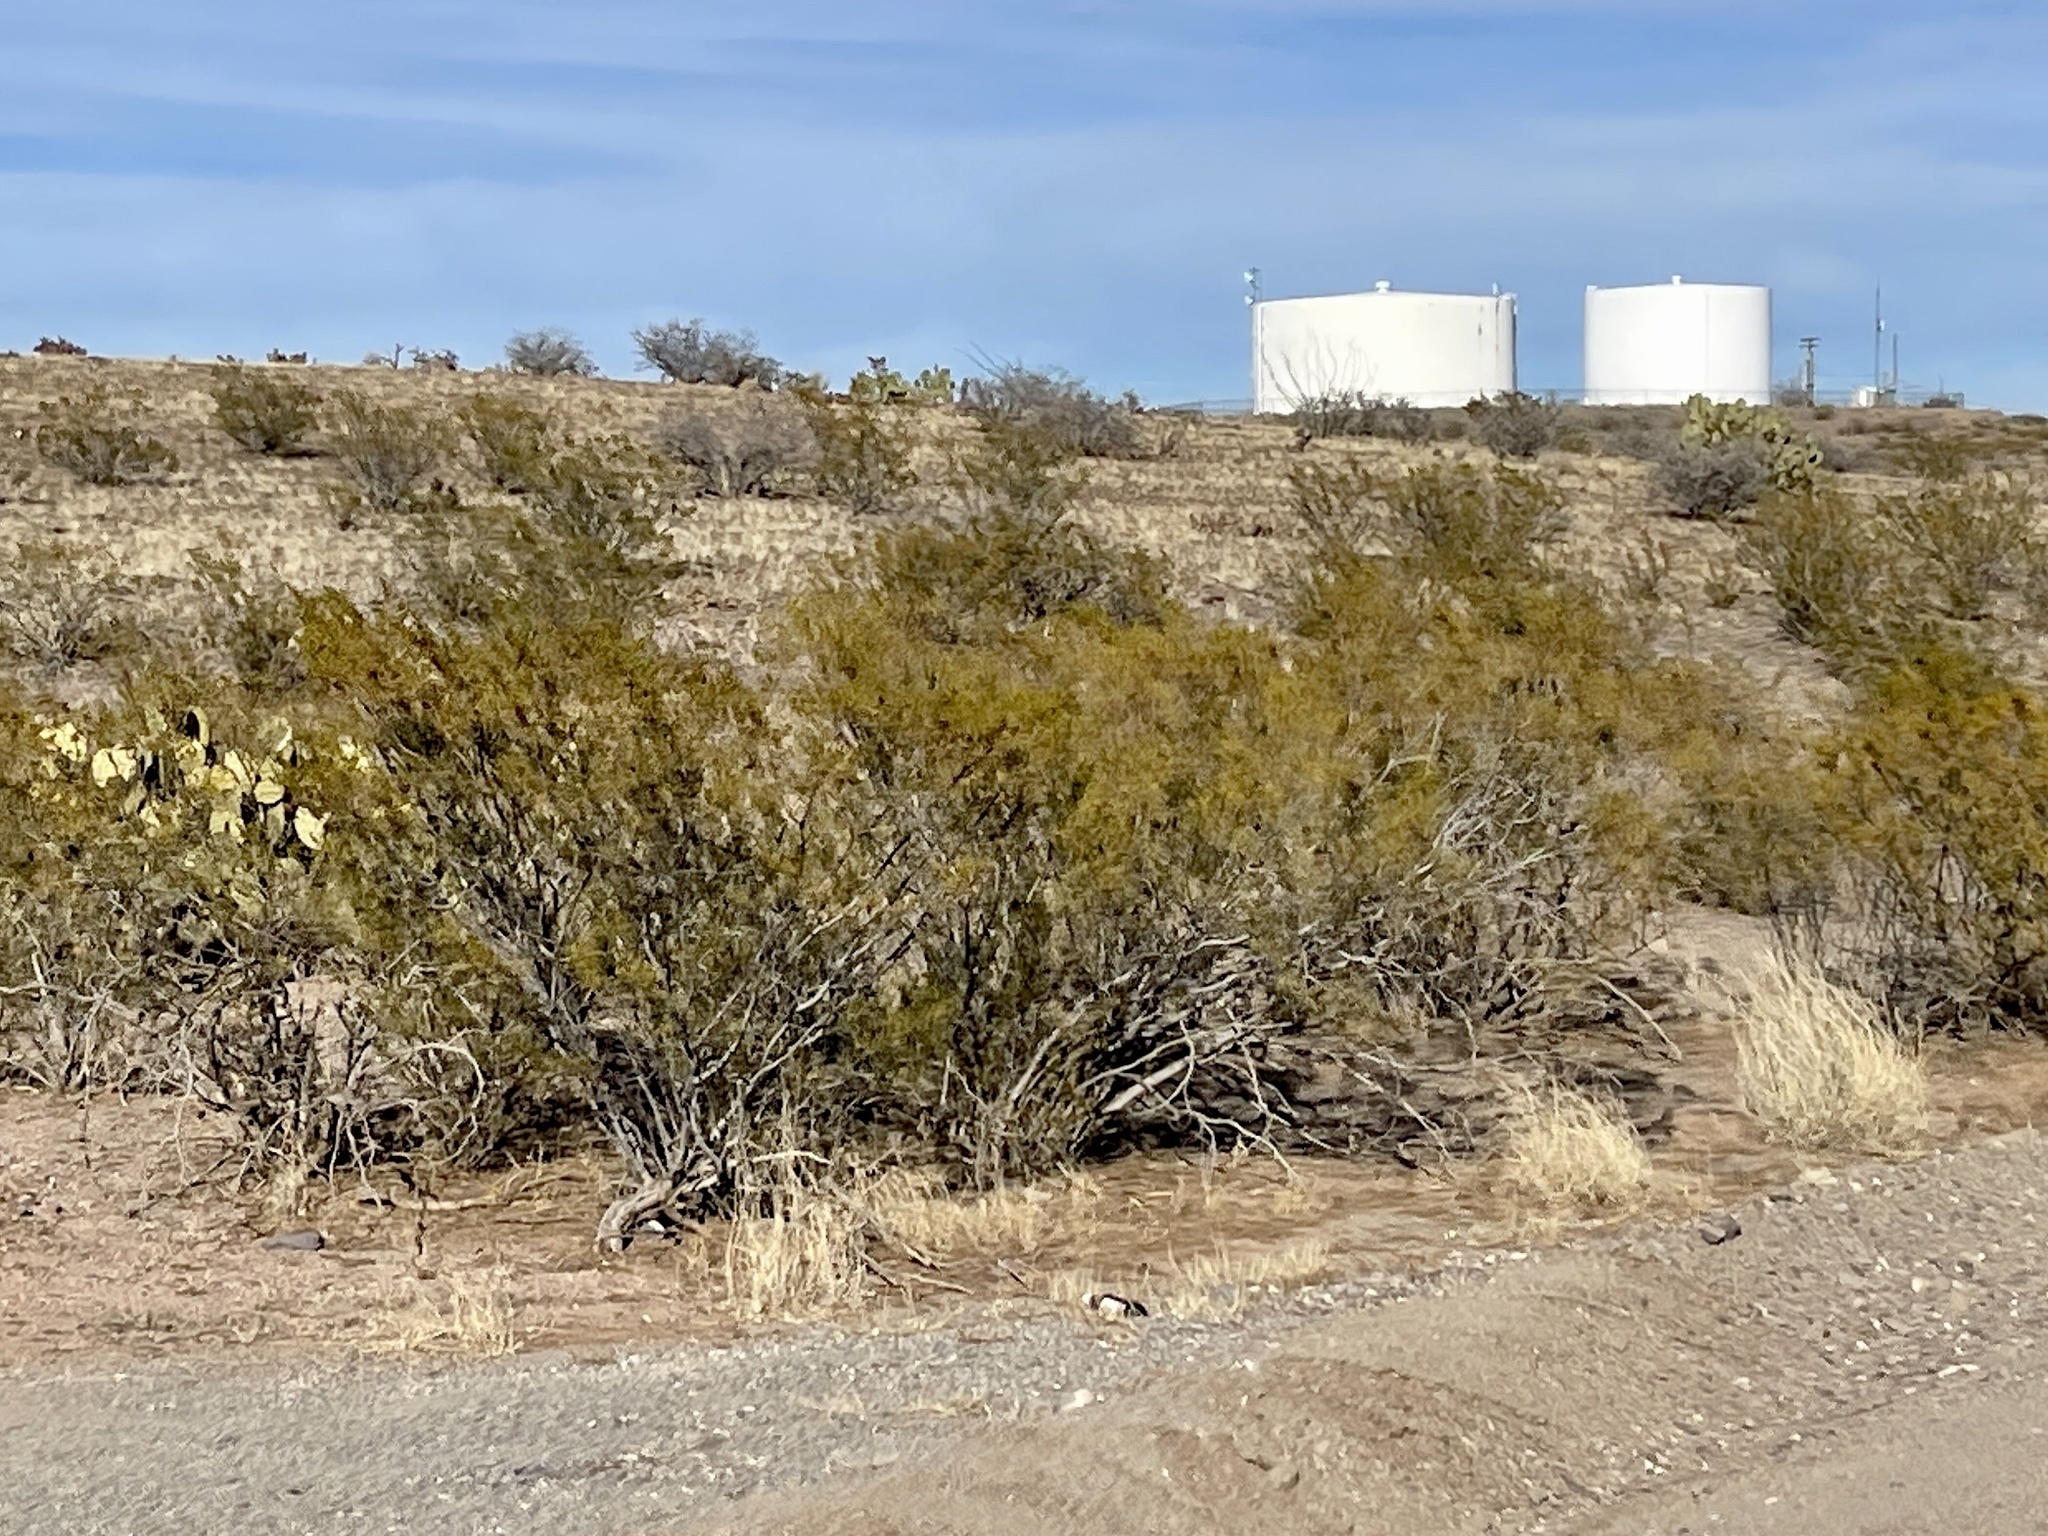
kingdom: Plantae
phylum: Tracheophyta
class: Magnoliopsida
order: Zygophyllales
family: Zygophyllaceae
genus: Larrea
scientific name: Larrea tridentata
